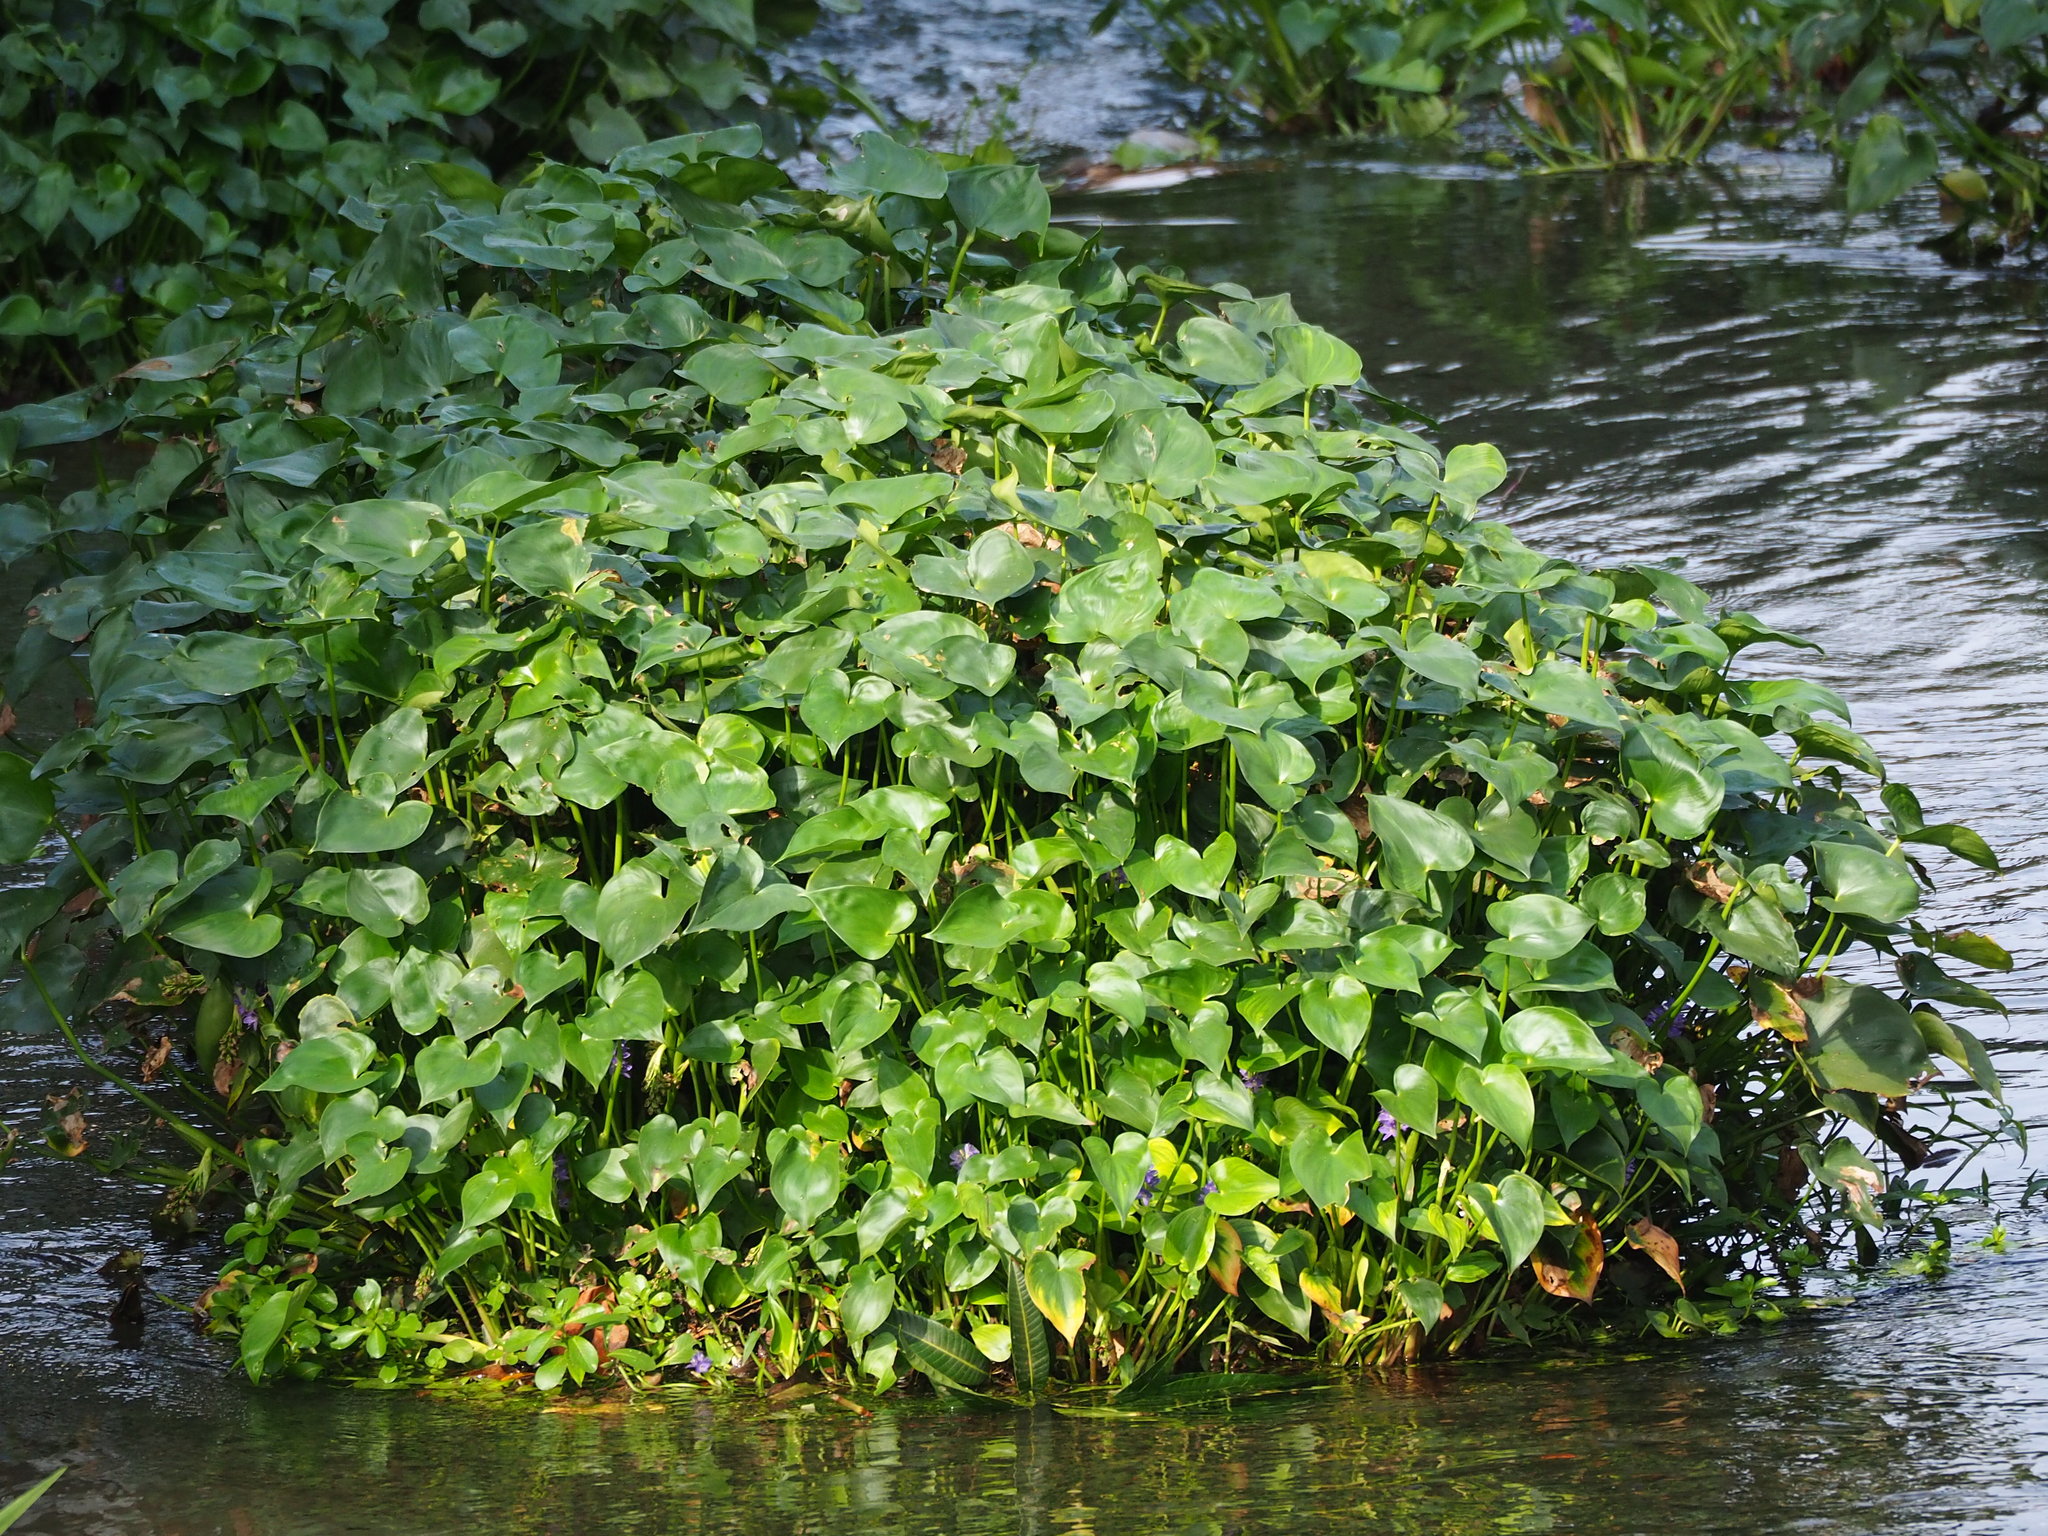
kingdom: Plantae
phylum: Tracheophyta
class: Liliopsida
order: Commelinales
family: Pontederiaceae
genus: Pontederia
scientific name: Pontederia vaginalis
